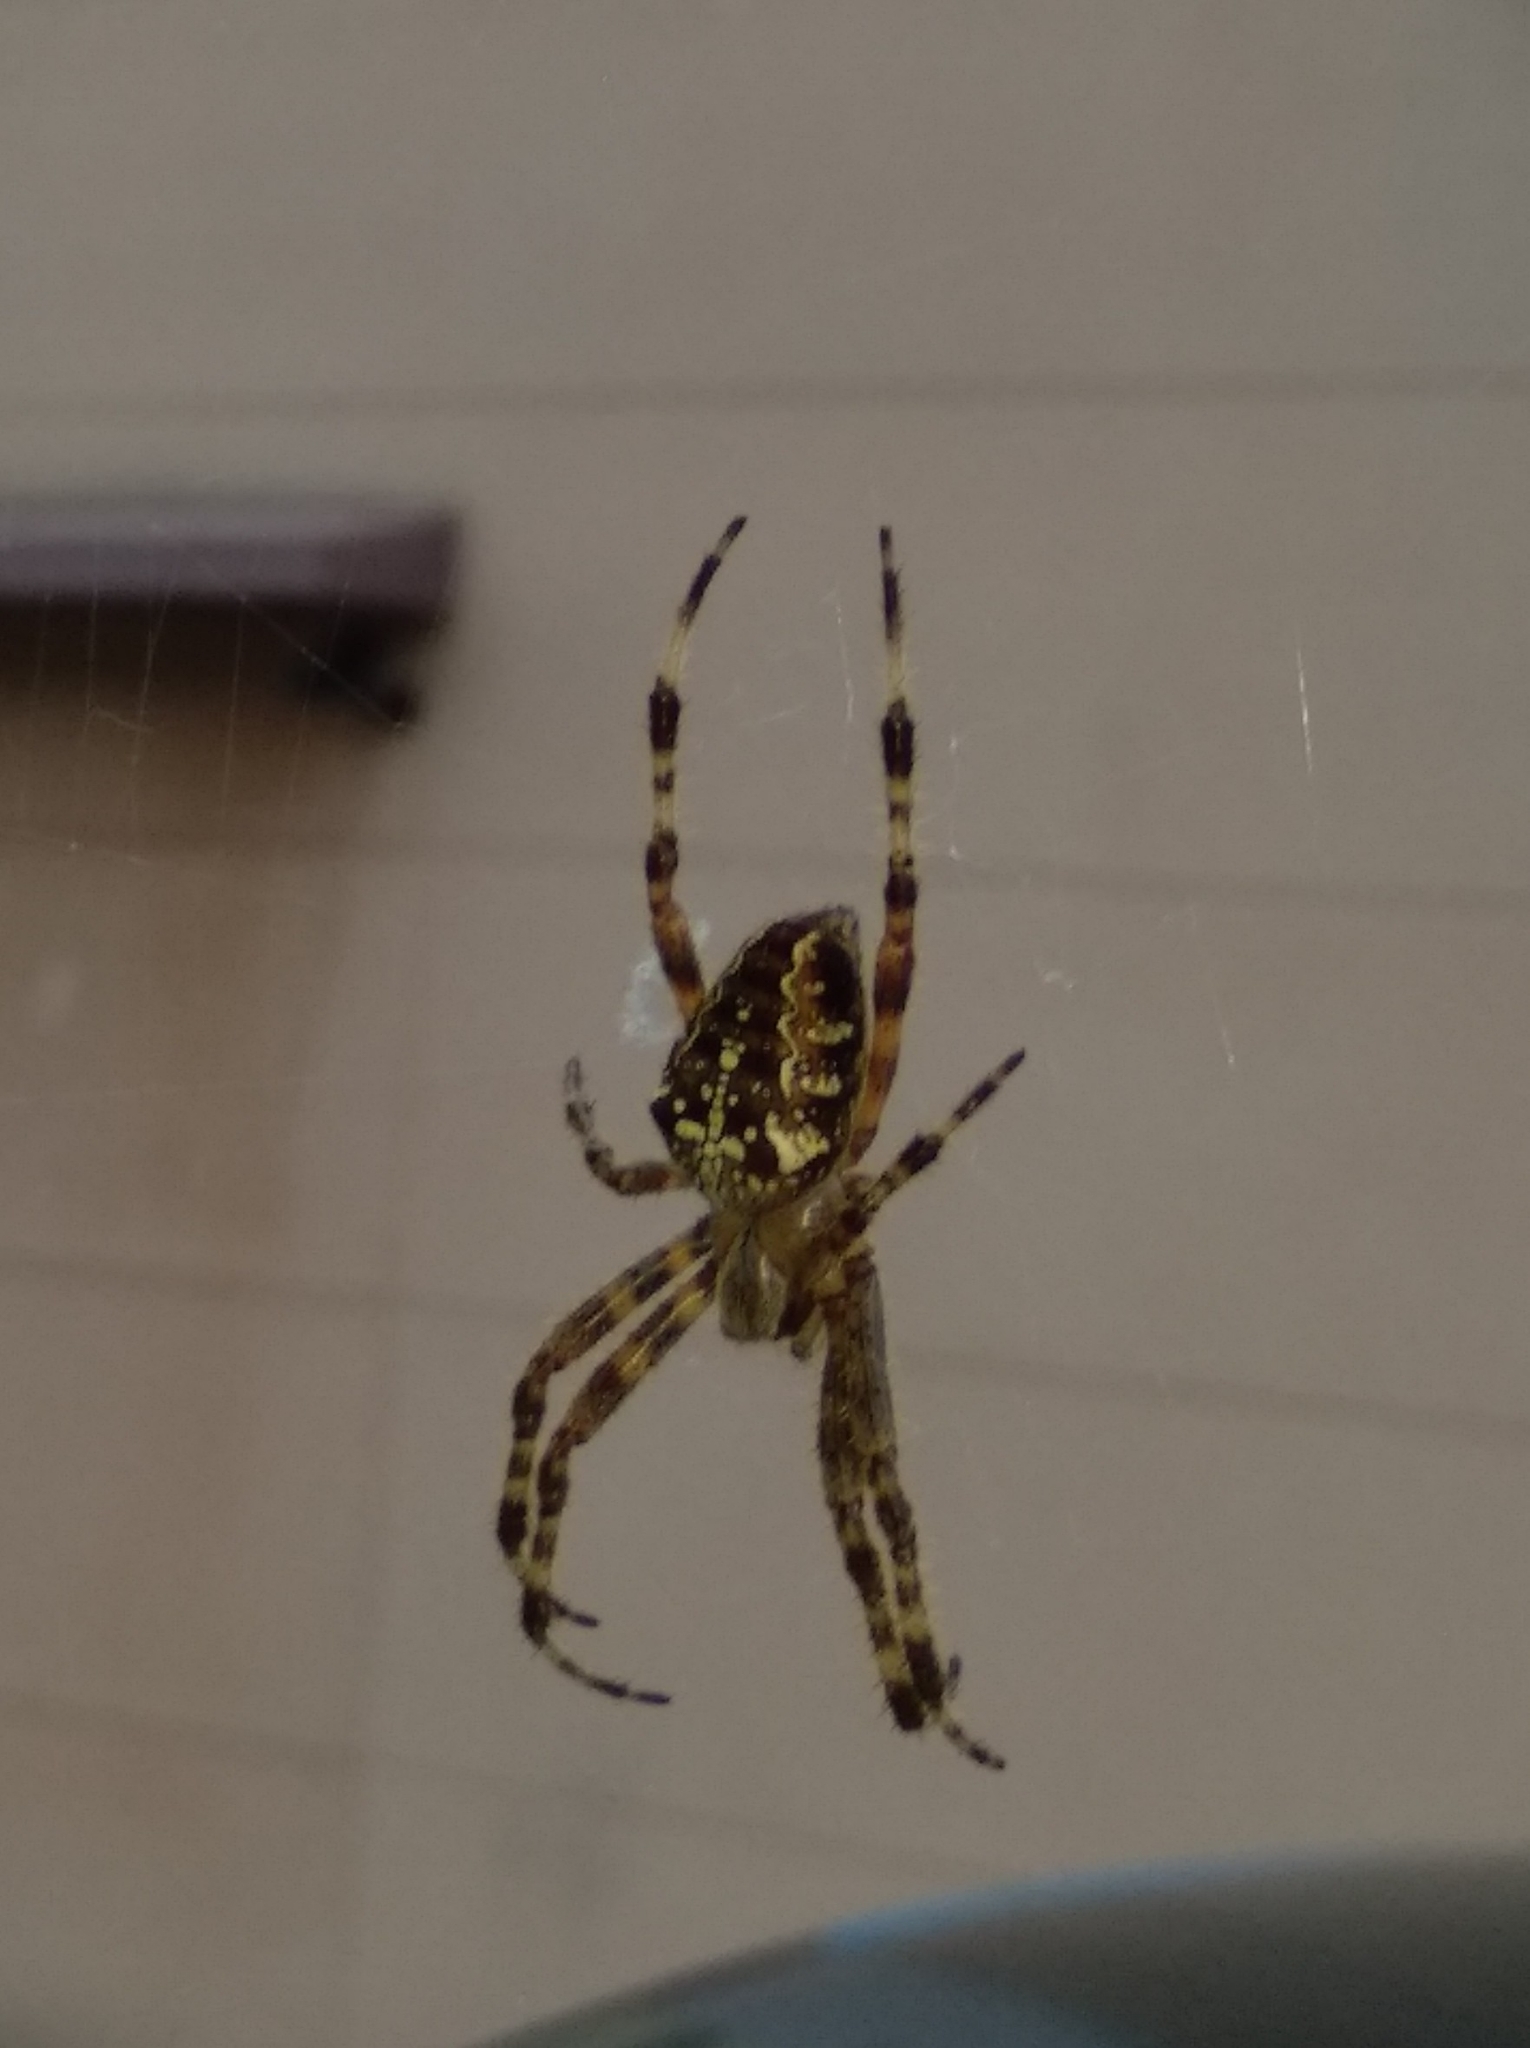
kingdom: Animalia
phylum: Arthropoda
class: Arachnida
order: Araneae
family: Araneidae
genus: Araneus
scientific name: Araneus diadematus
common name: Cross orbweaver
